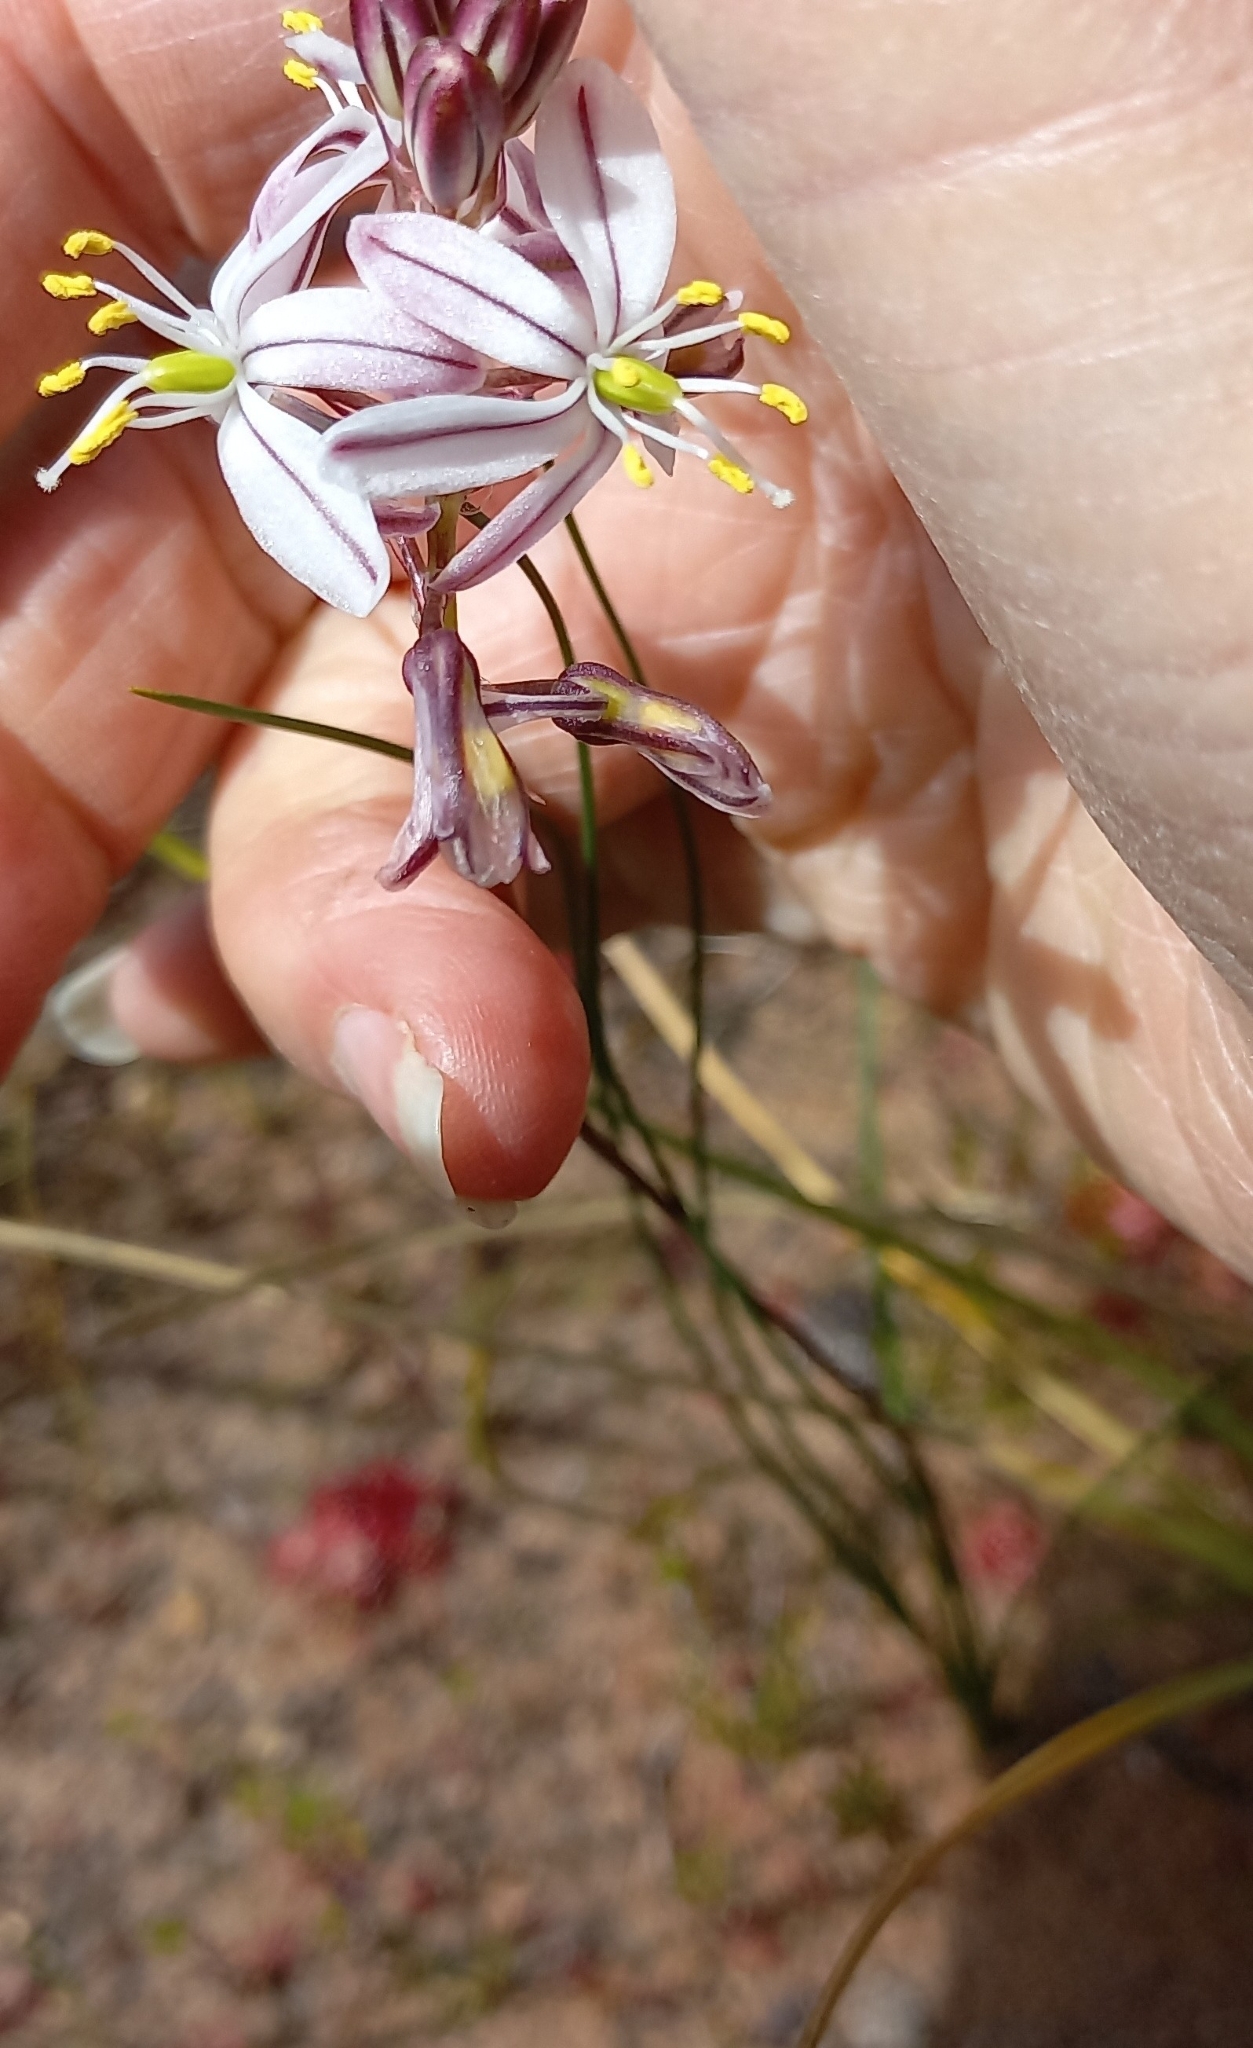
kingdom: Plantae
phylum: Tracheophyta
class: Liliopsida
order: Asparagales
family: Asparagaceae
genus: Drimia
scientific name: Drimia exuviata
